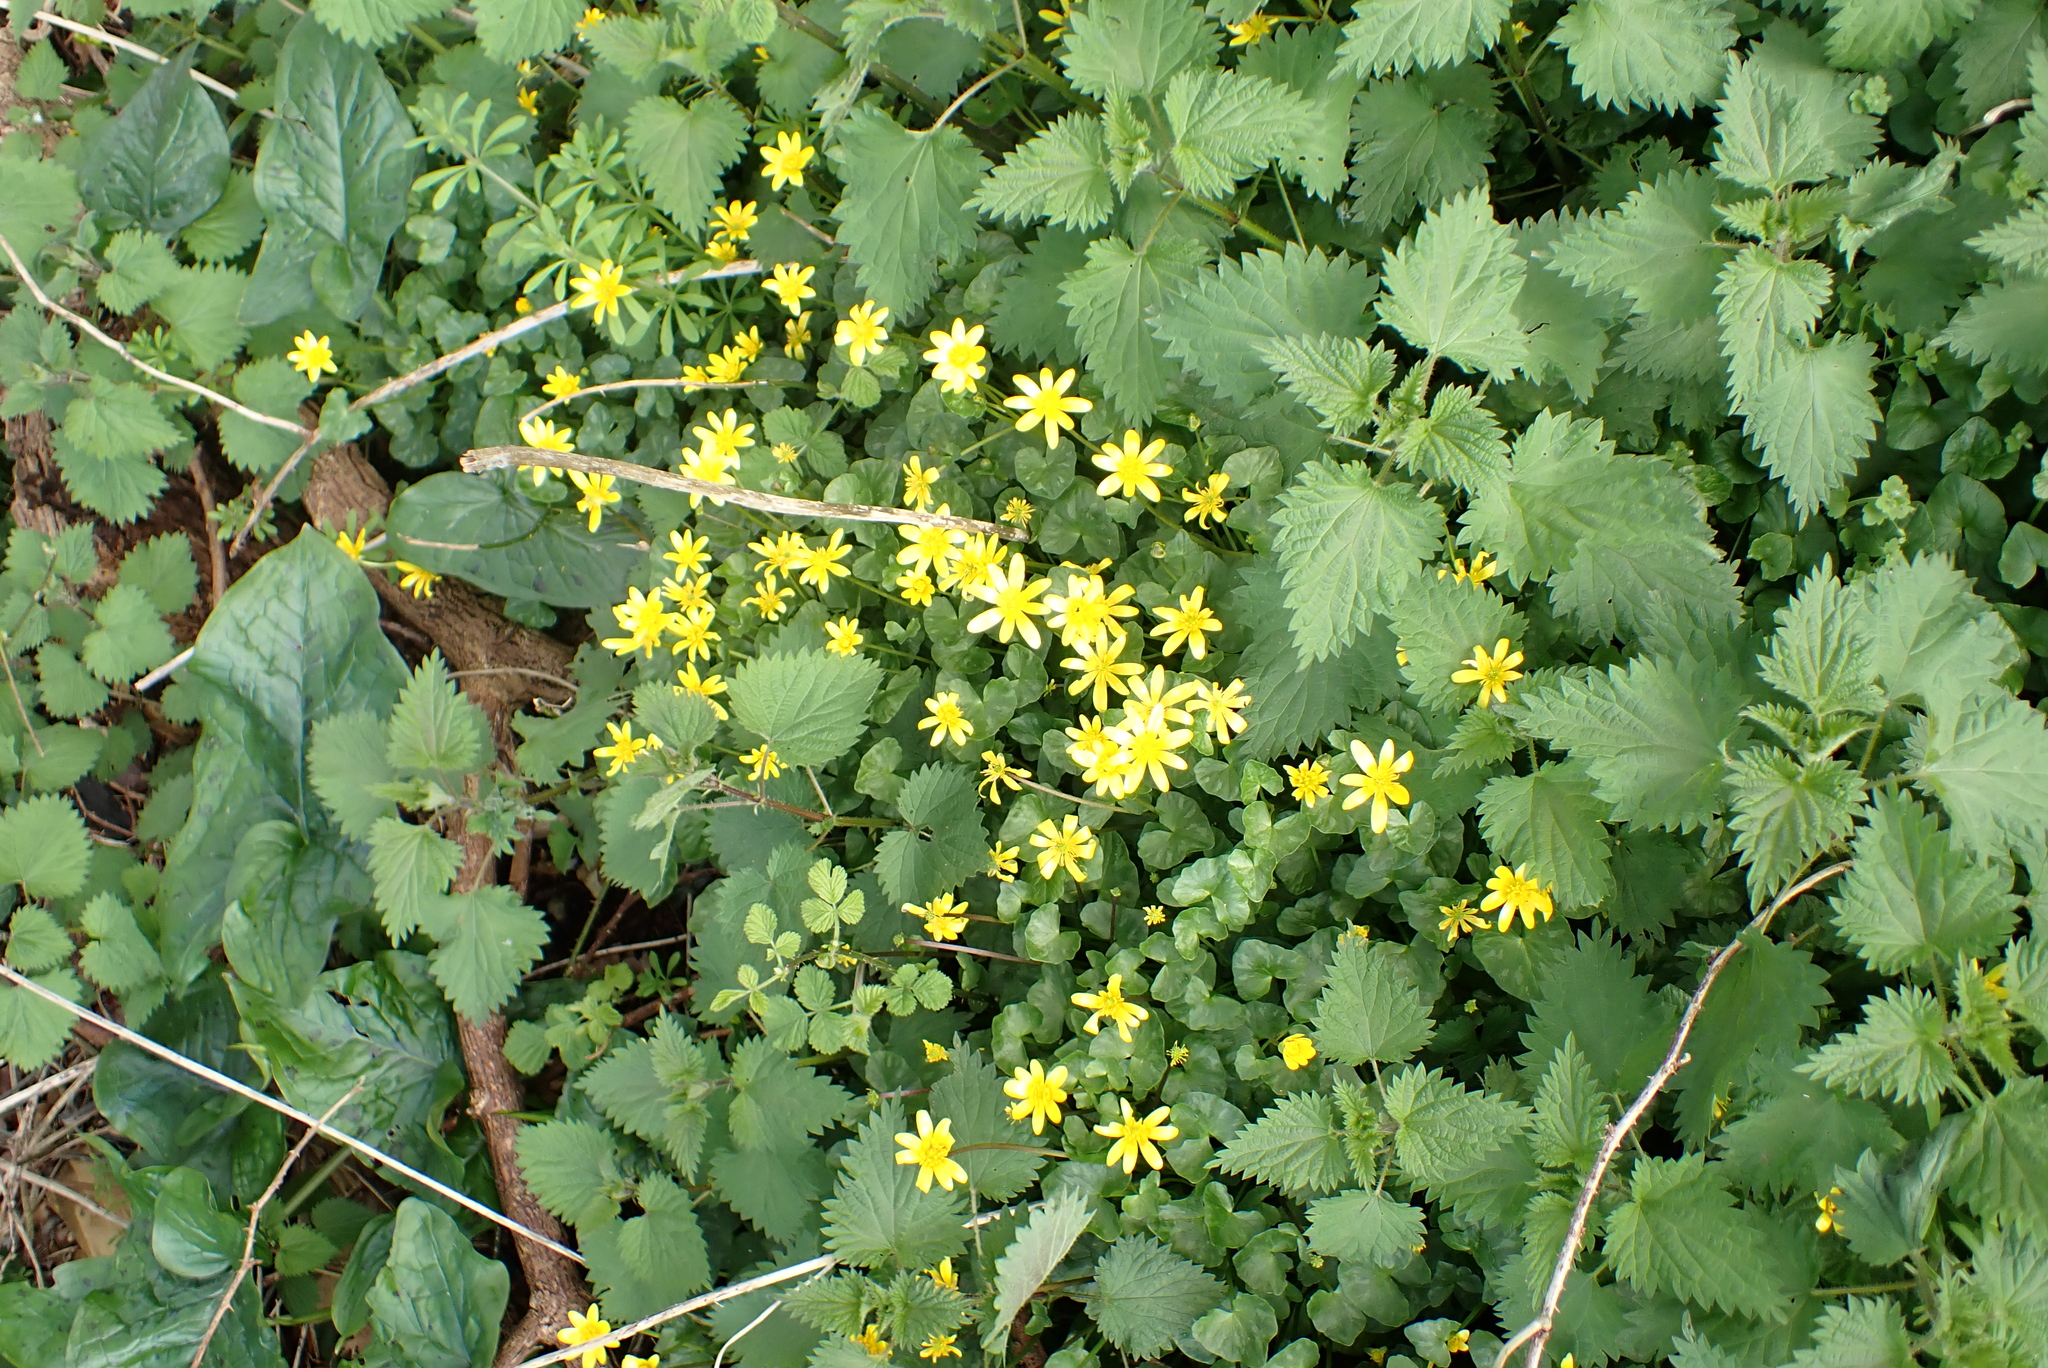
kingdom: Plantae
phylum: Tracheophyta
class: Magnoliopsida
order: Ranunculales
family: Ranunculaceae
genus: Ficaria
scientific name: Ficaria verna
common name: Lesser celandine
